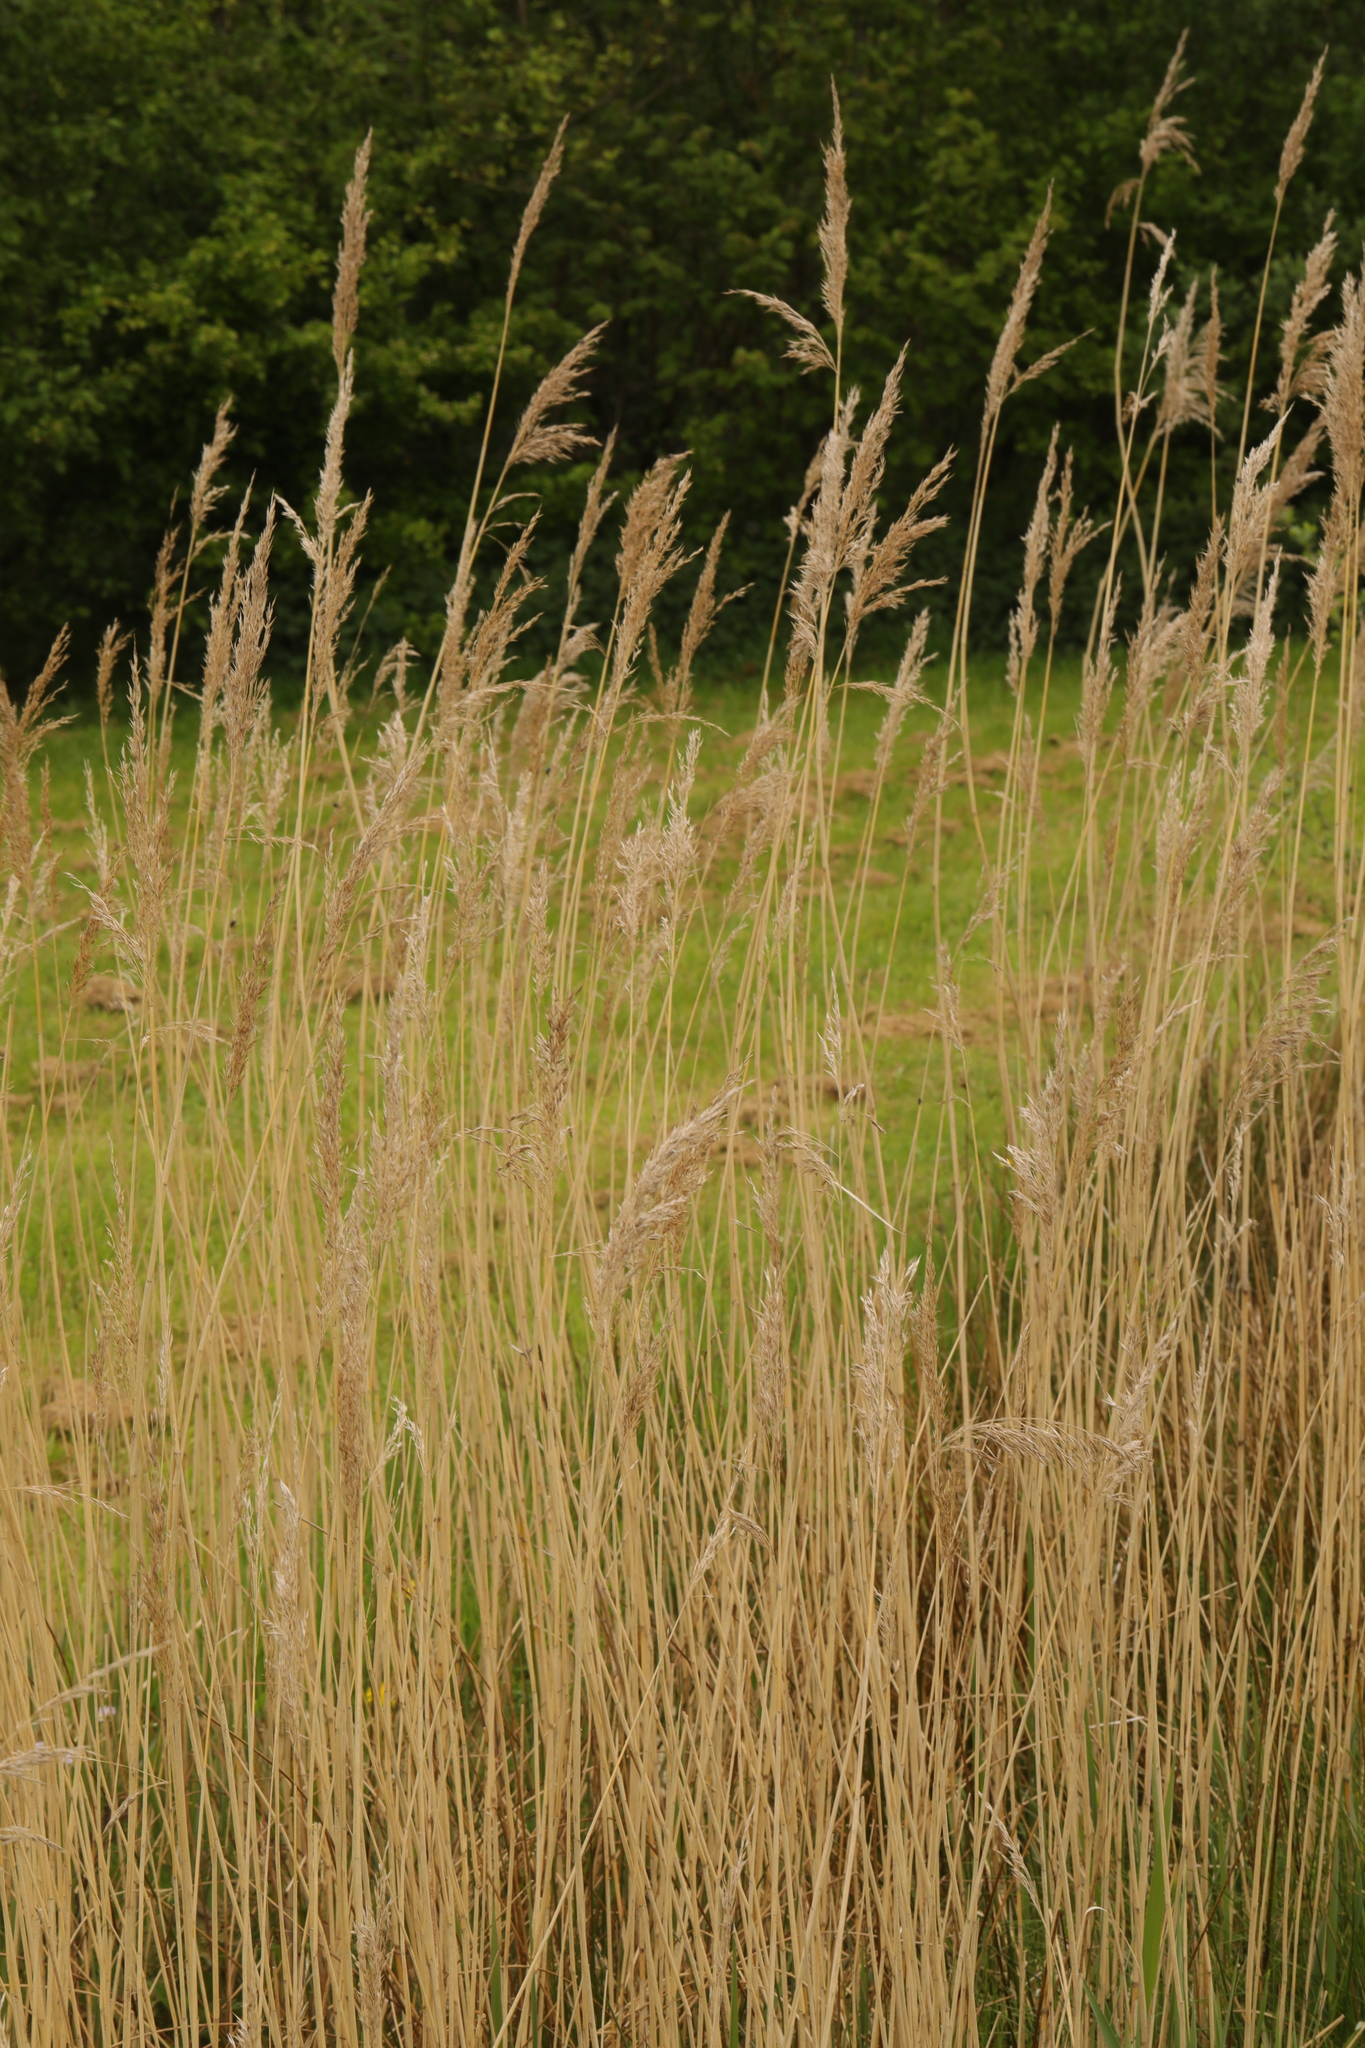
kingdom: Plantae
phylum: Tracheophyta
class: Liliopsida
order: Poales
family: Poaceae
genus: Phragmites
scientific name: Phragmites australis
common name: Common reed
